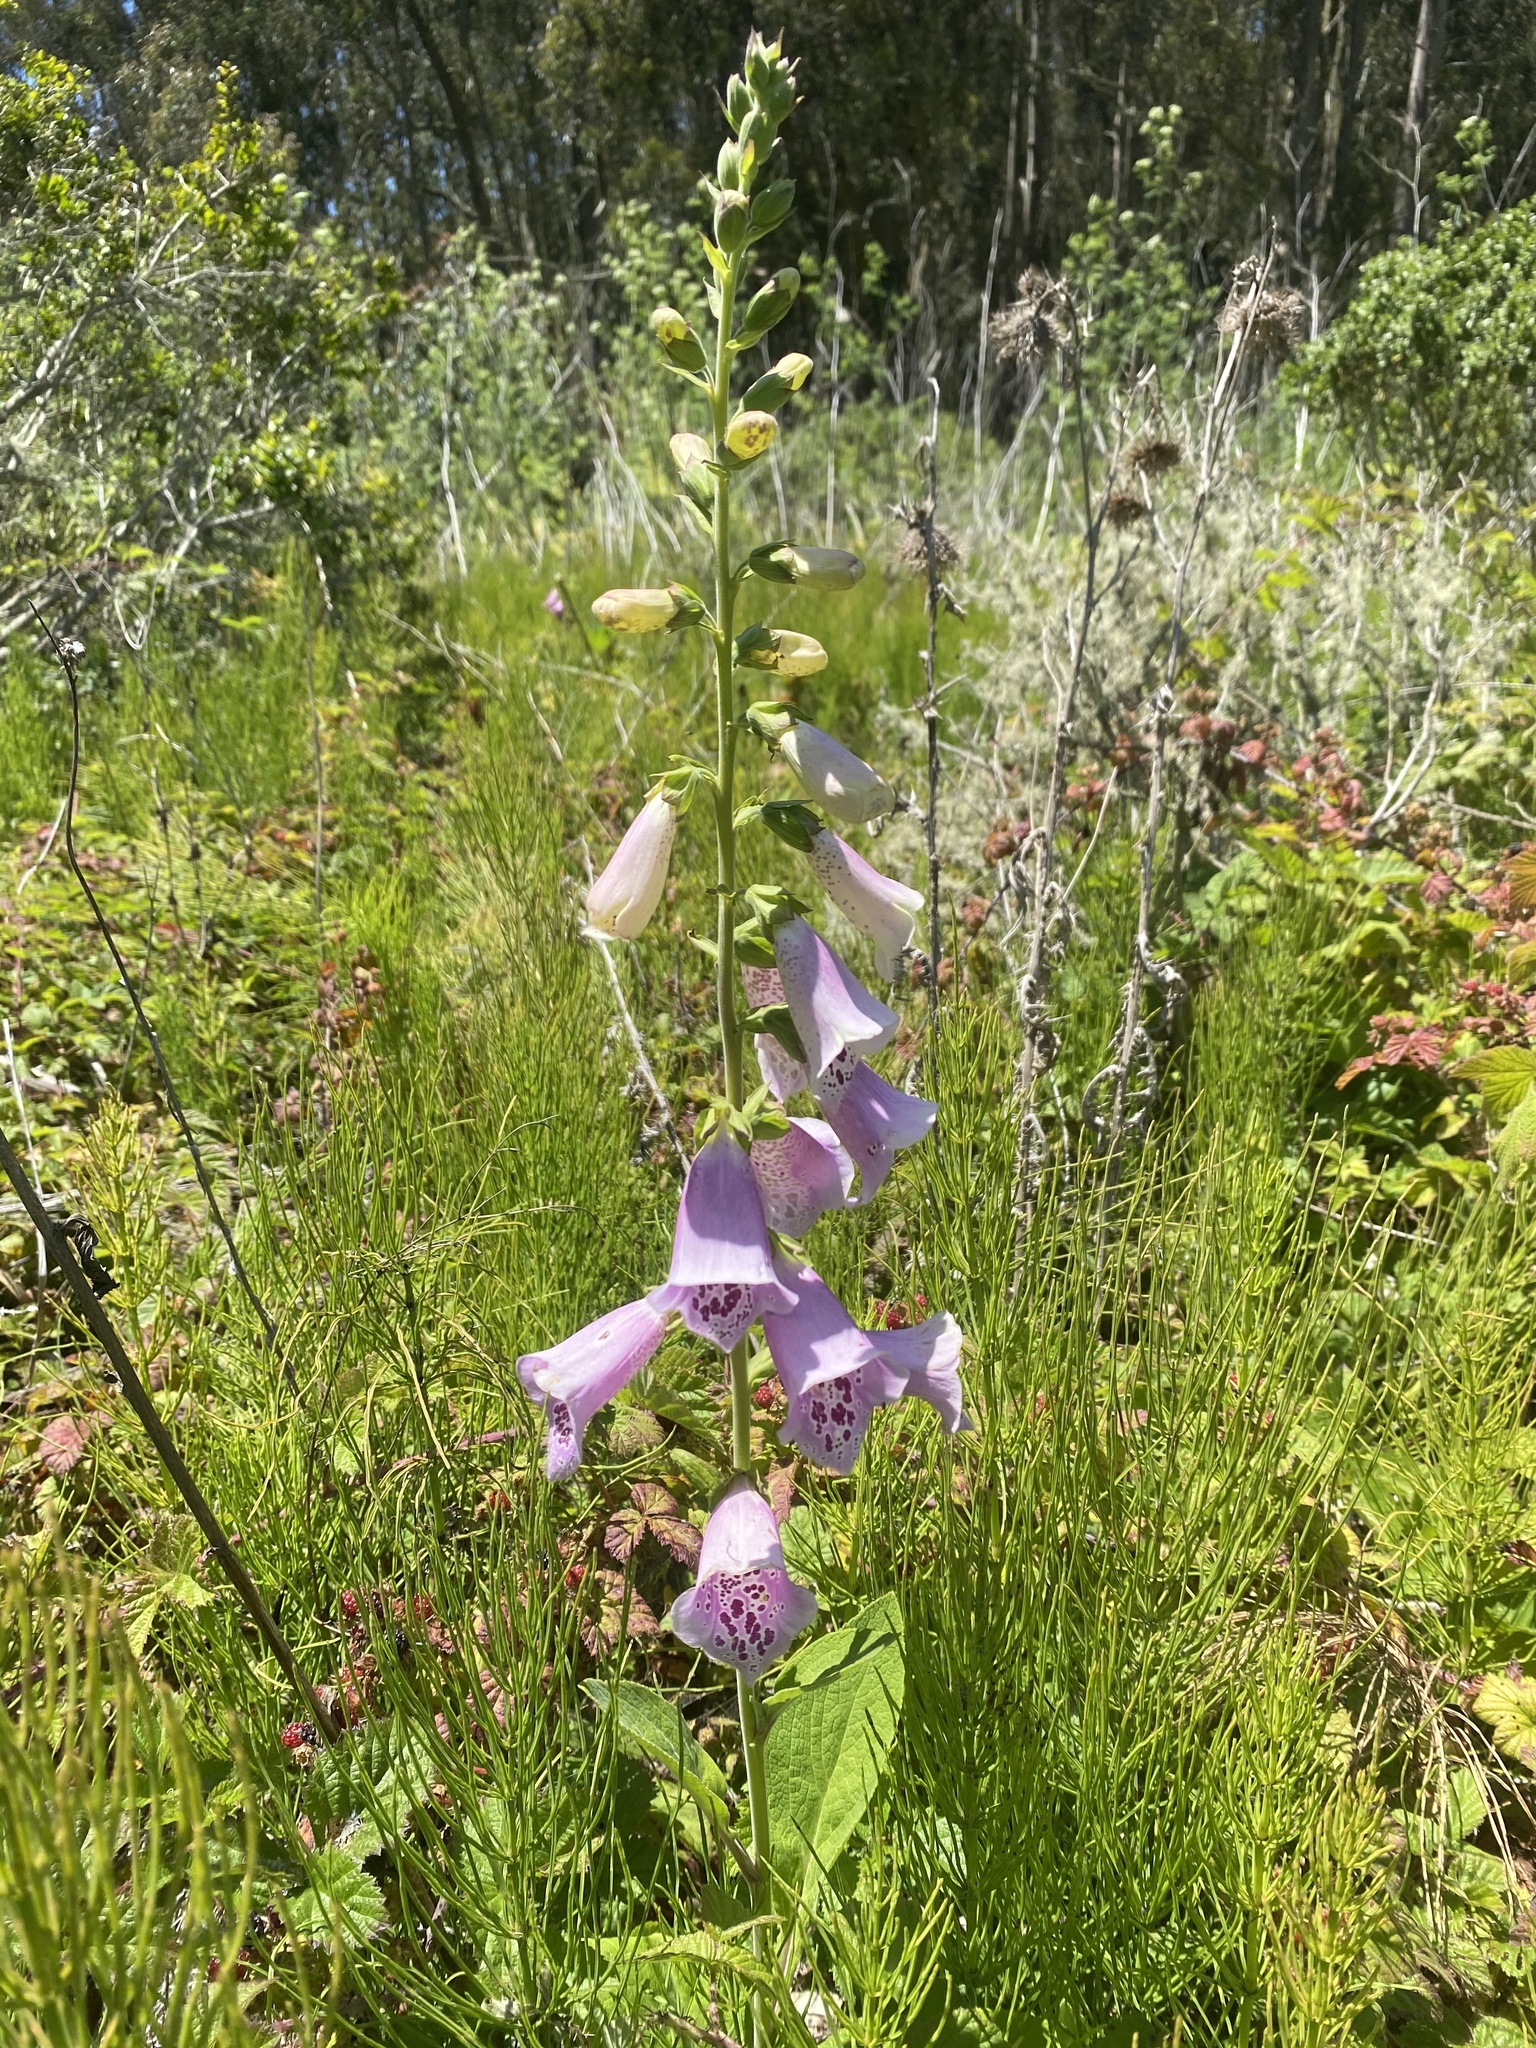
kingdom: Plantae
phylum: Tracheophyta
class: Magnoliopsida
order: Lamiales
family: Plantaginaceae
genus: Digitalis
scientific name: Digitalis purpurea
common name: Foxglove
